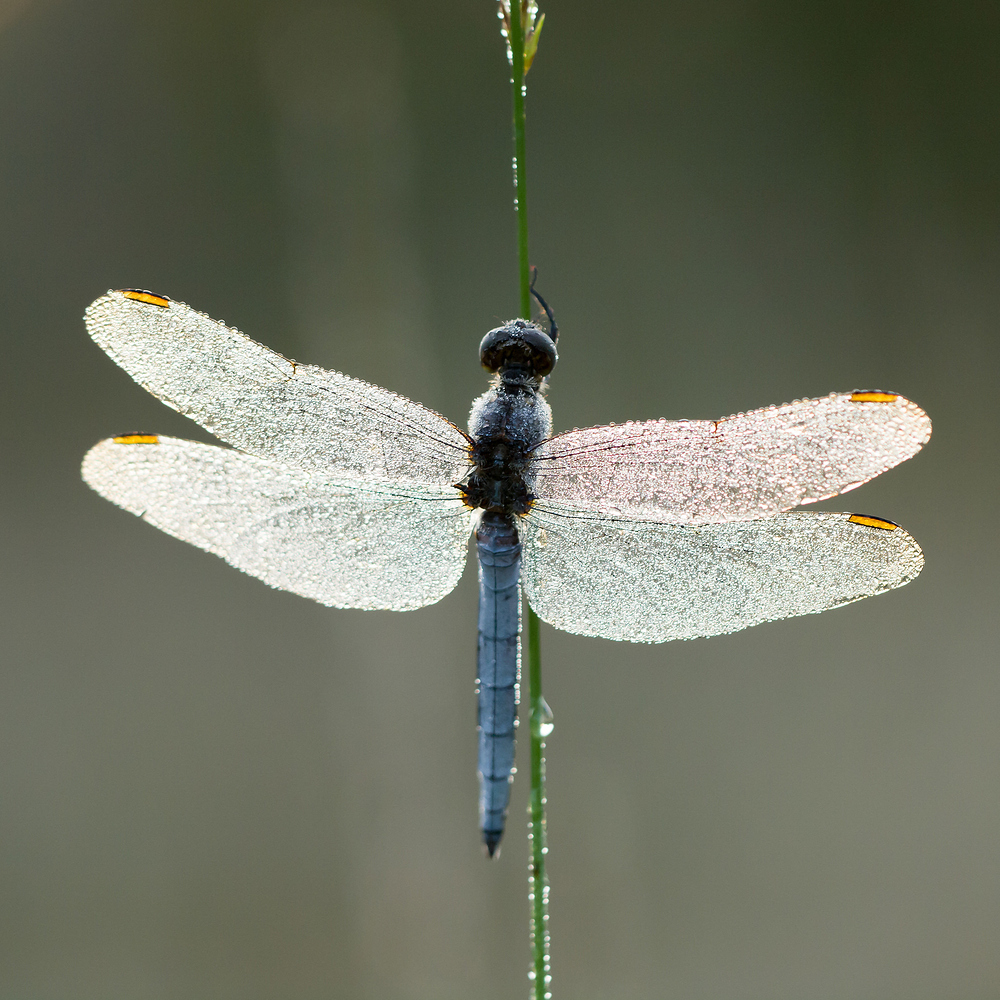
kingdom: Animalia
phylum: Arthropoda
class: Insecta
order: Odonata
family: Libellulidae
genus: Orthetrum
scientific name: Orthetrum coerulescens
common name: Keeled skimmer
